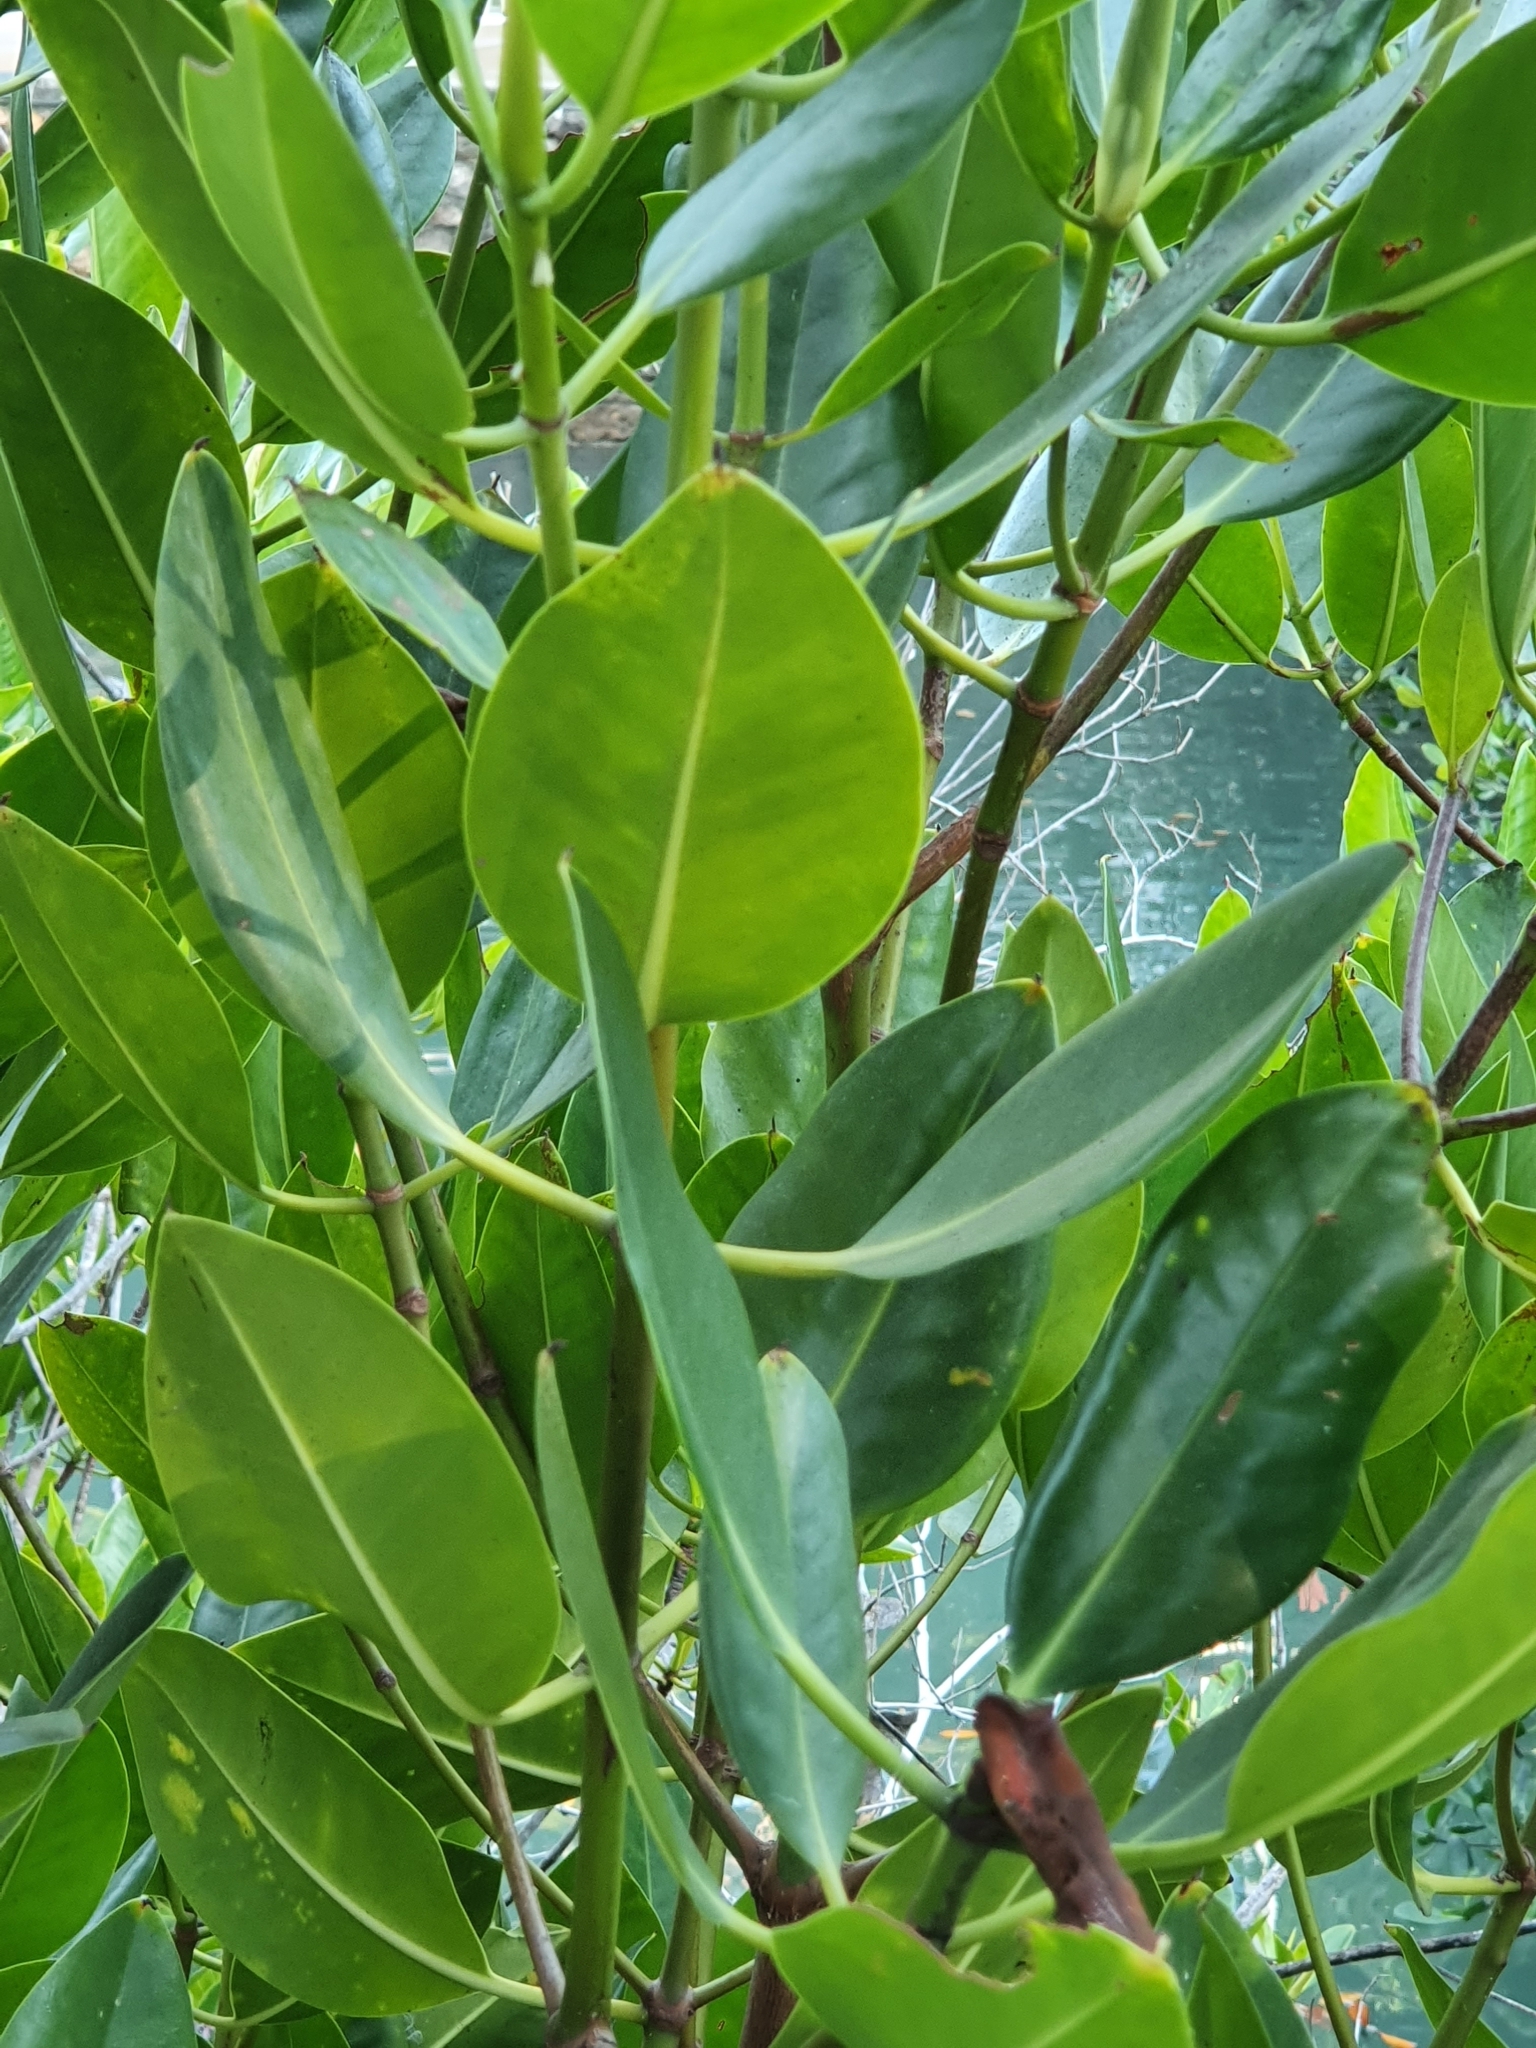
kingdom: Plantae
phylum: Tracheophyta
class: Magnoliopsida
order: Malpighiales
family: Rhizophoraceae
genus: Bruguiera
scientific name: Bruguiera exaristata
